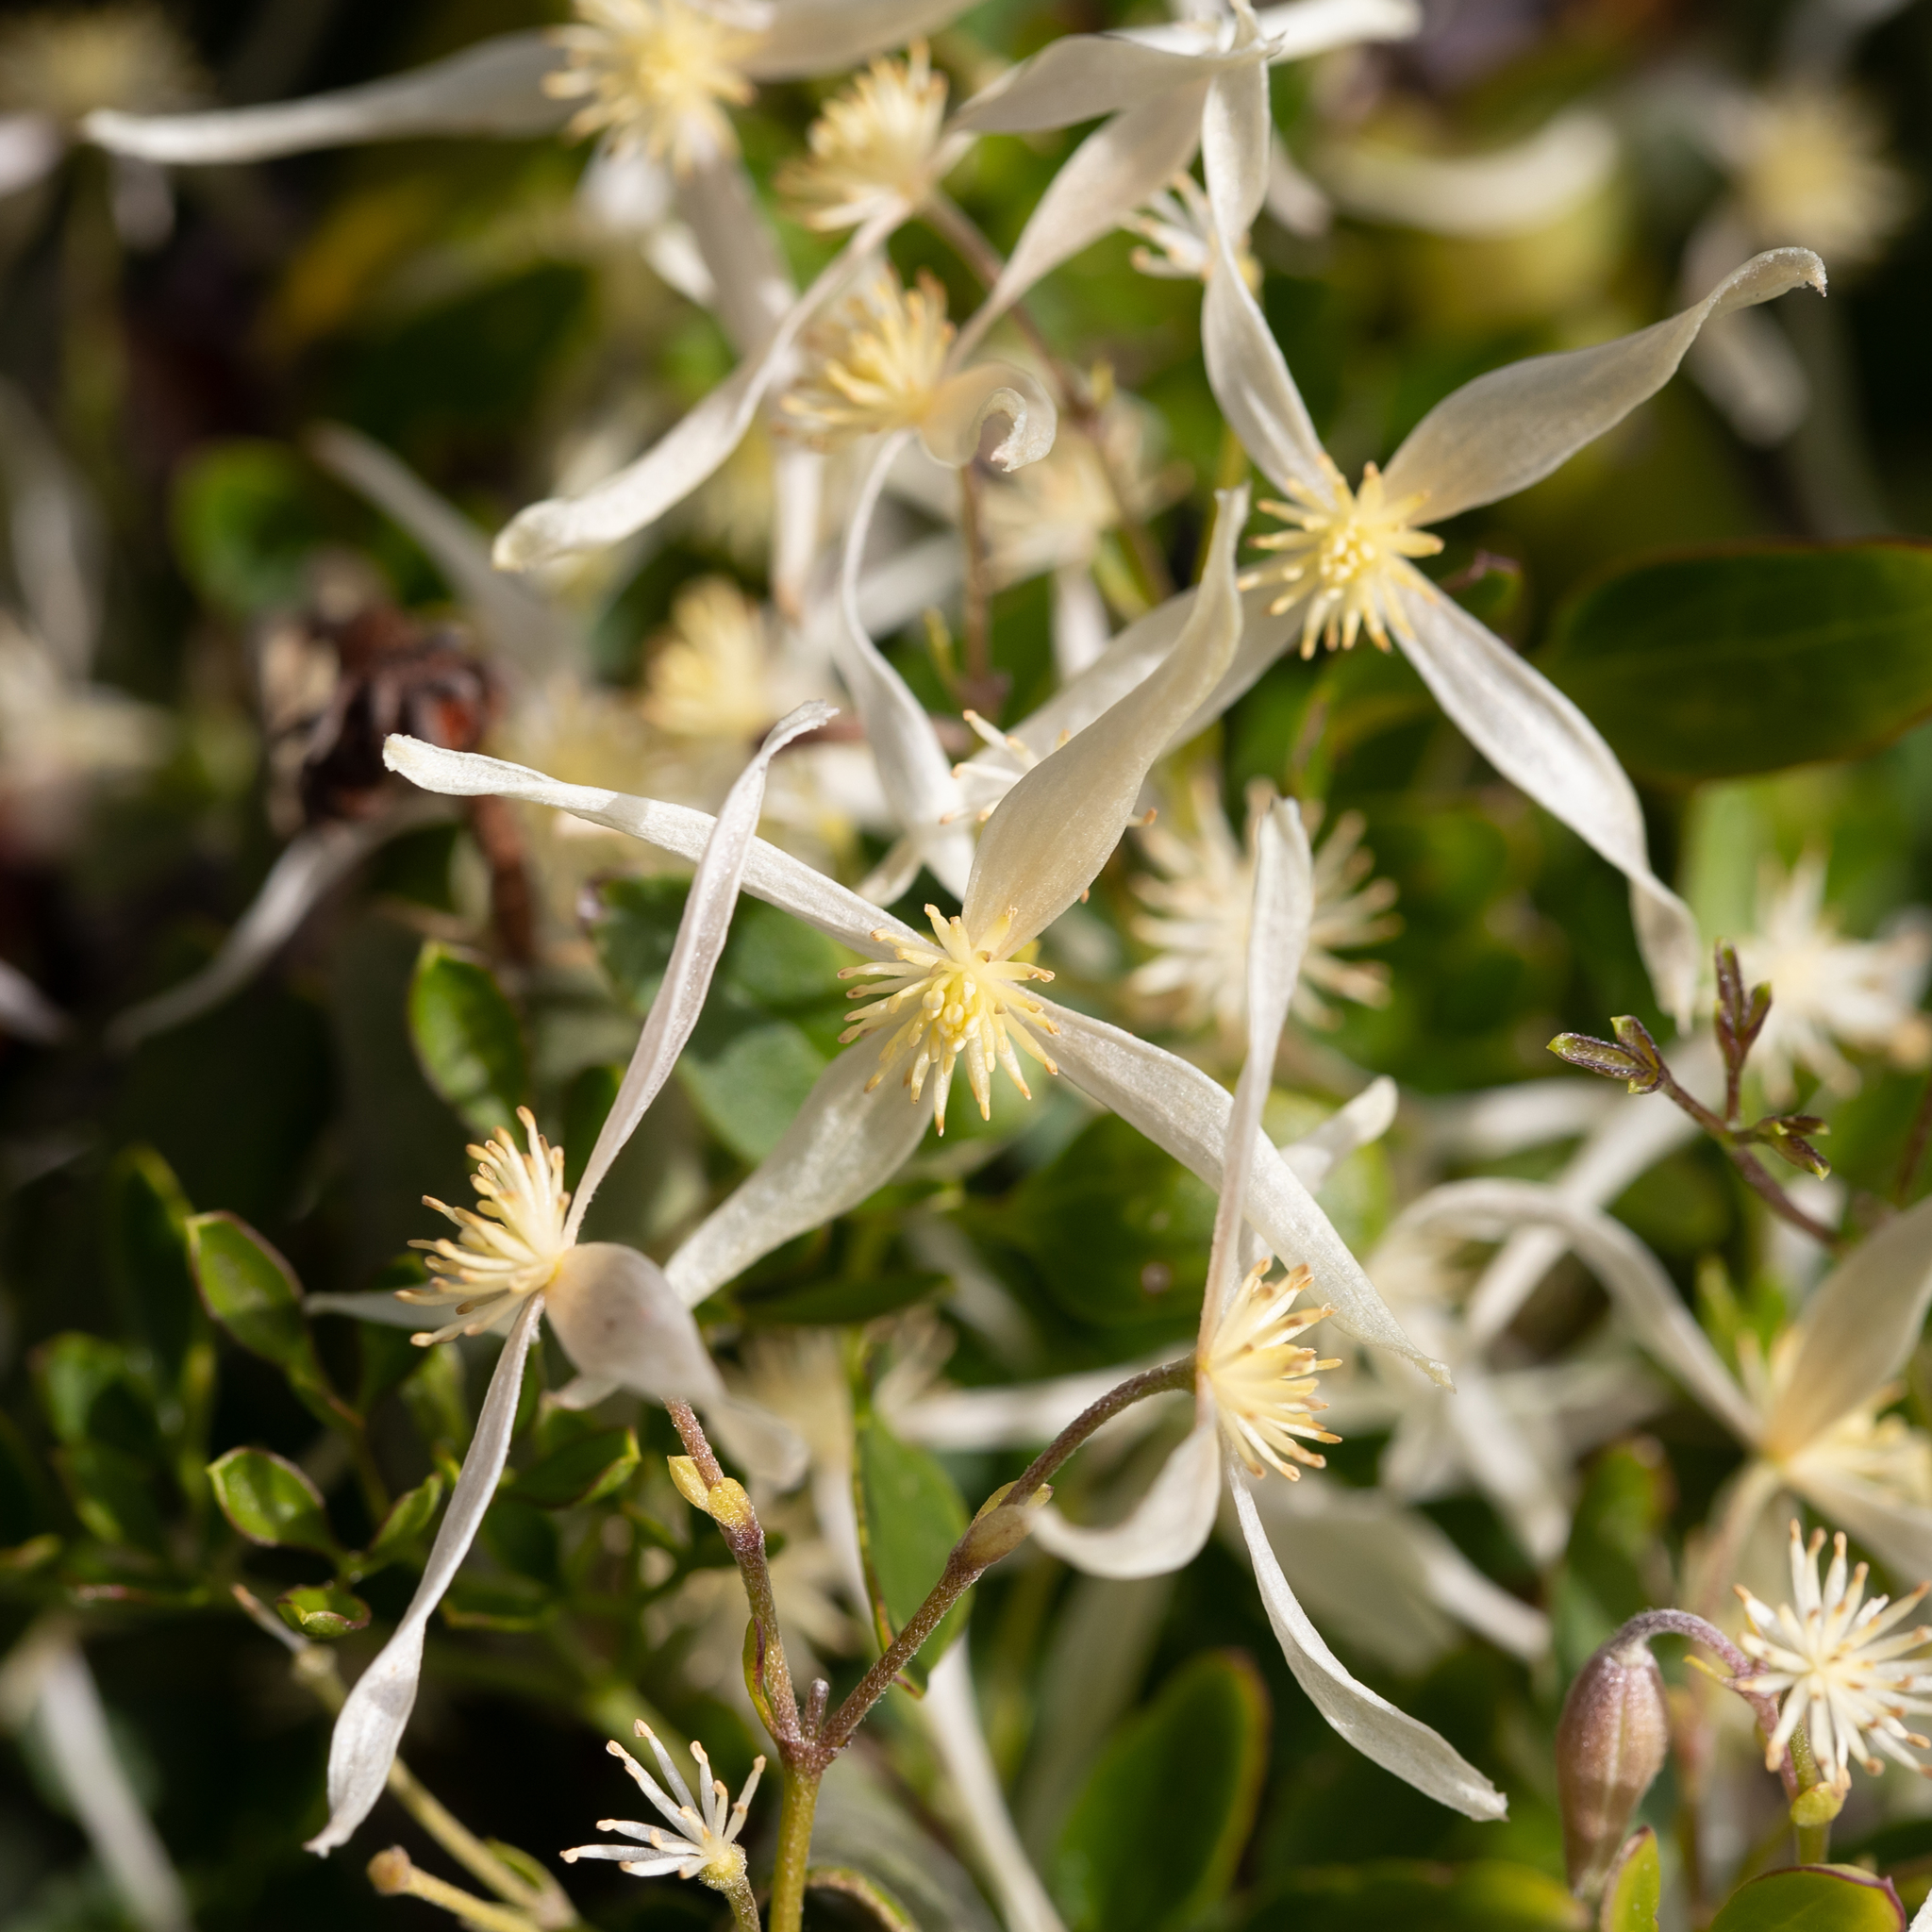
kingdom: Plantae
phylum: Tracheophyta
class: Magnoliopsida
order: Ranunculales
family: Ranunculaceae
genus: Clematis
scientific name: Clematis microphylla
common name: Headachevine
